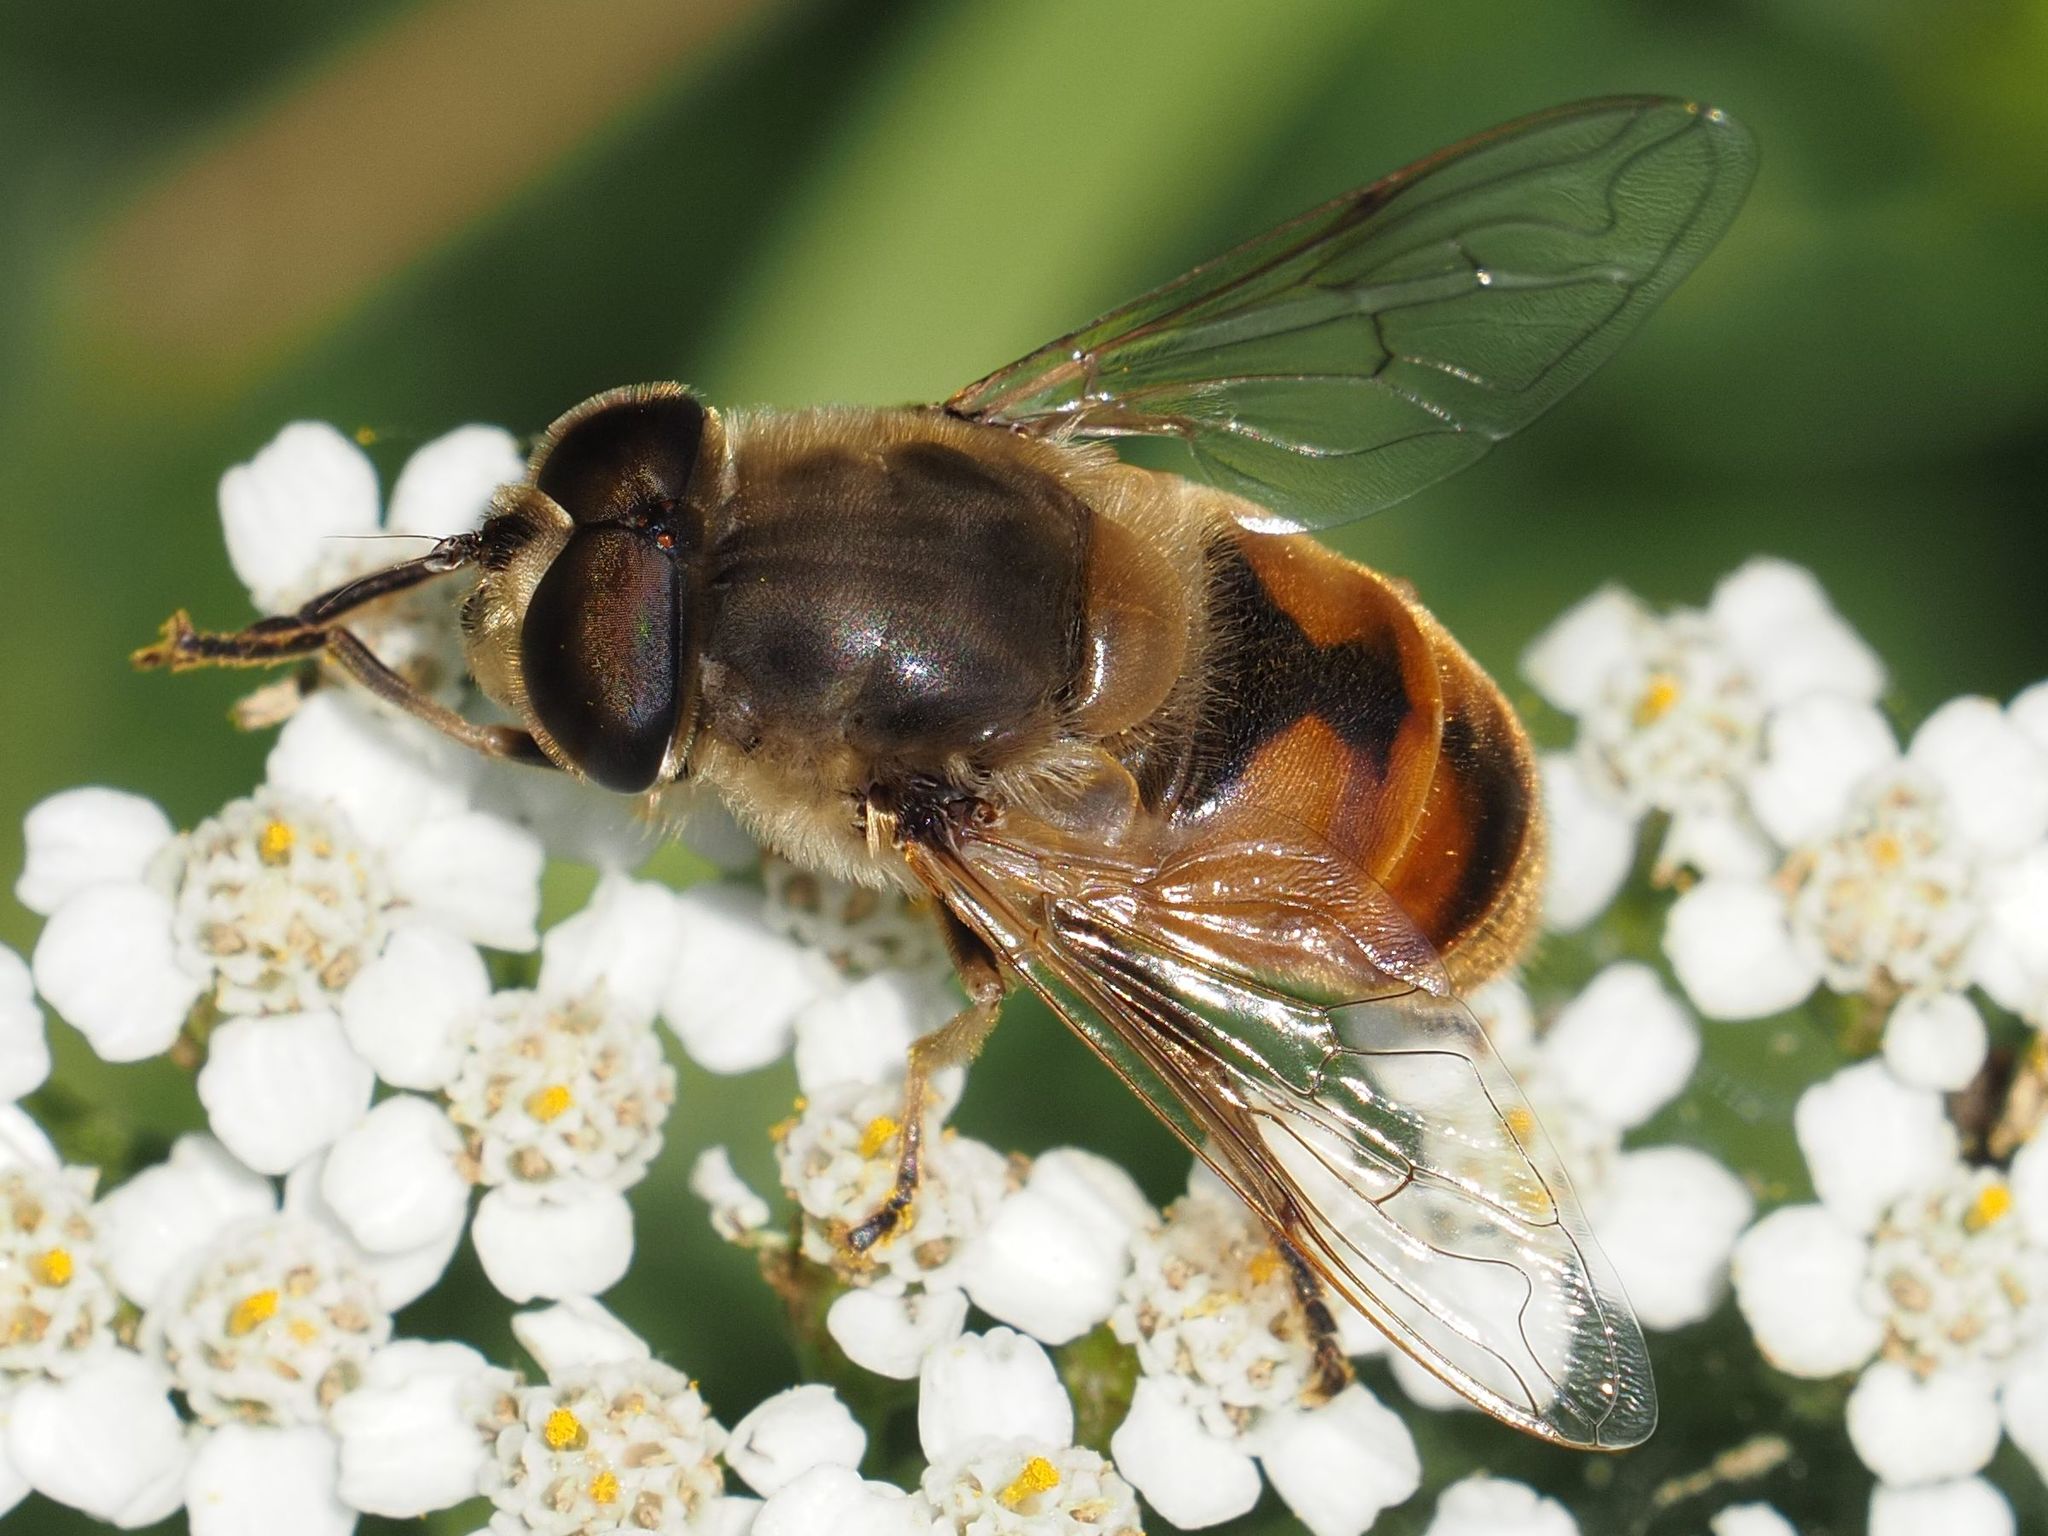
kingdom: Animalia
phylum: Arthropoda
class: Insecta
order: Diptera
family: Syrphidae
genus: Eristalis
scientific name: Eristalis tenax
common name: Drone fly
